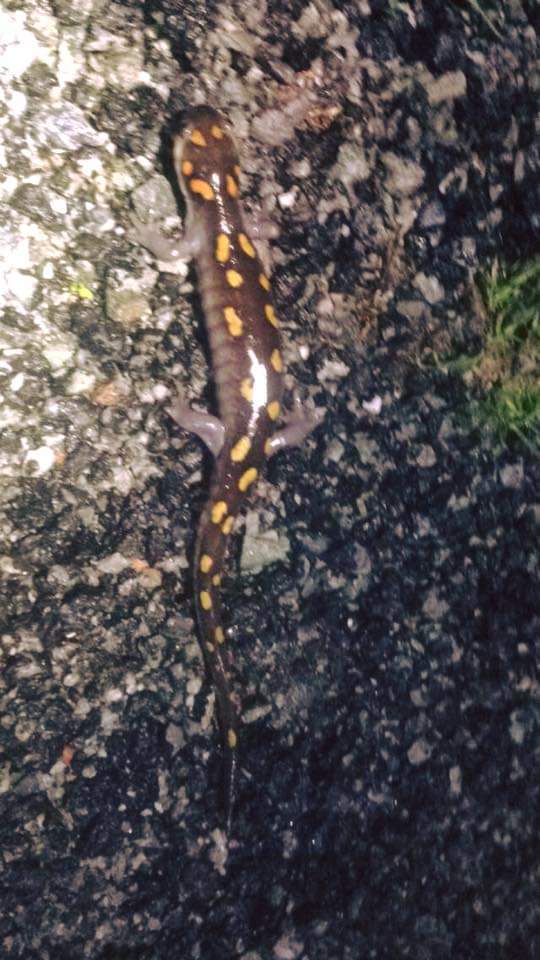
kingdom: Animalia
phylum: Chordata
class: Amphibia
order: Caudata
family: Ambystomatidae
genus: Ambystoma
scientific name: Ambystoma maculatum
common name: Spotted salamander
